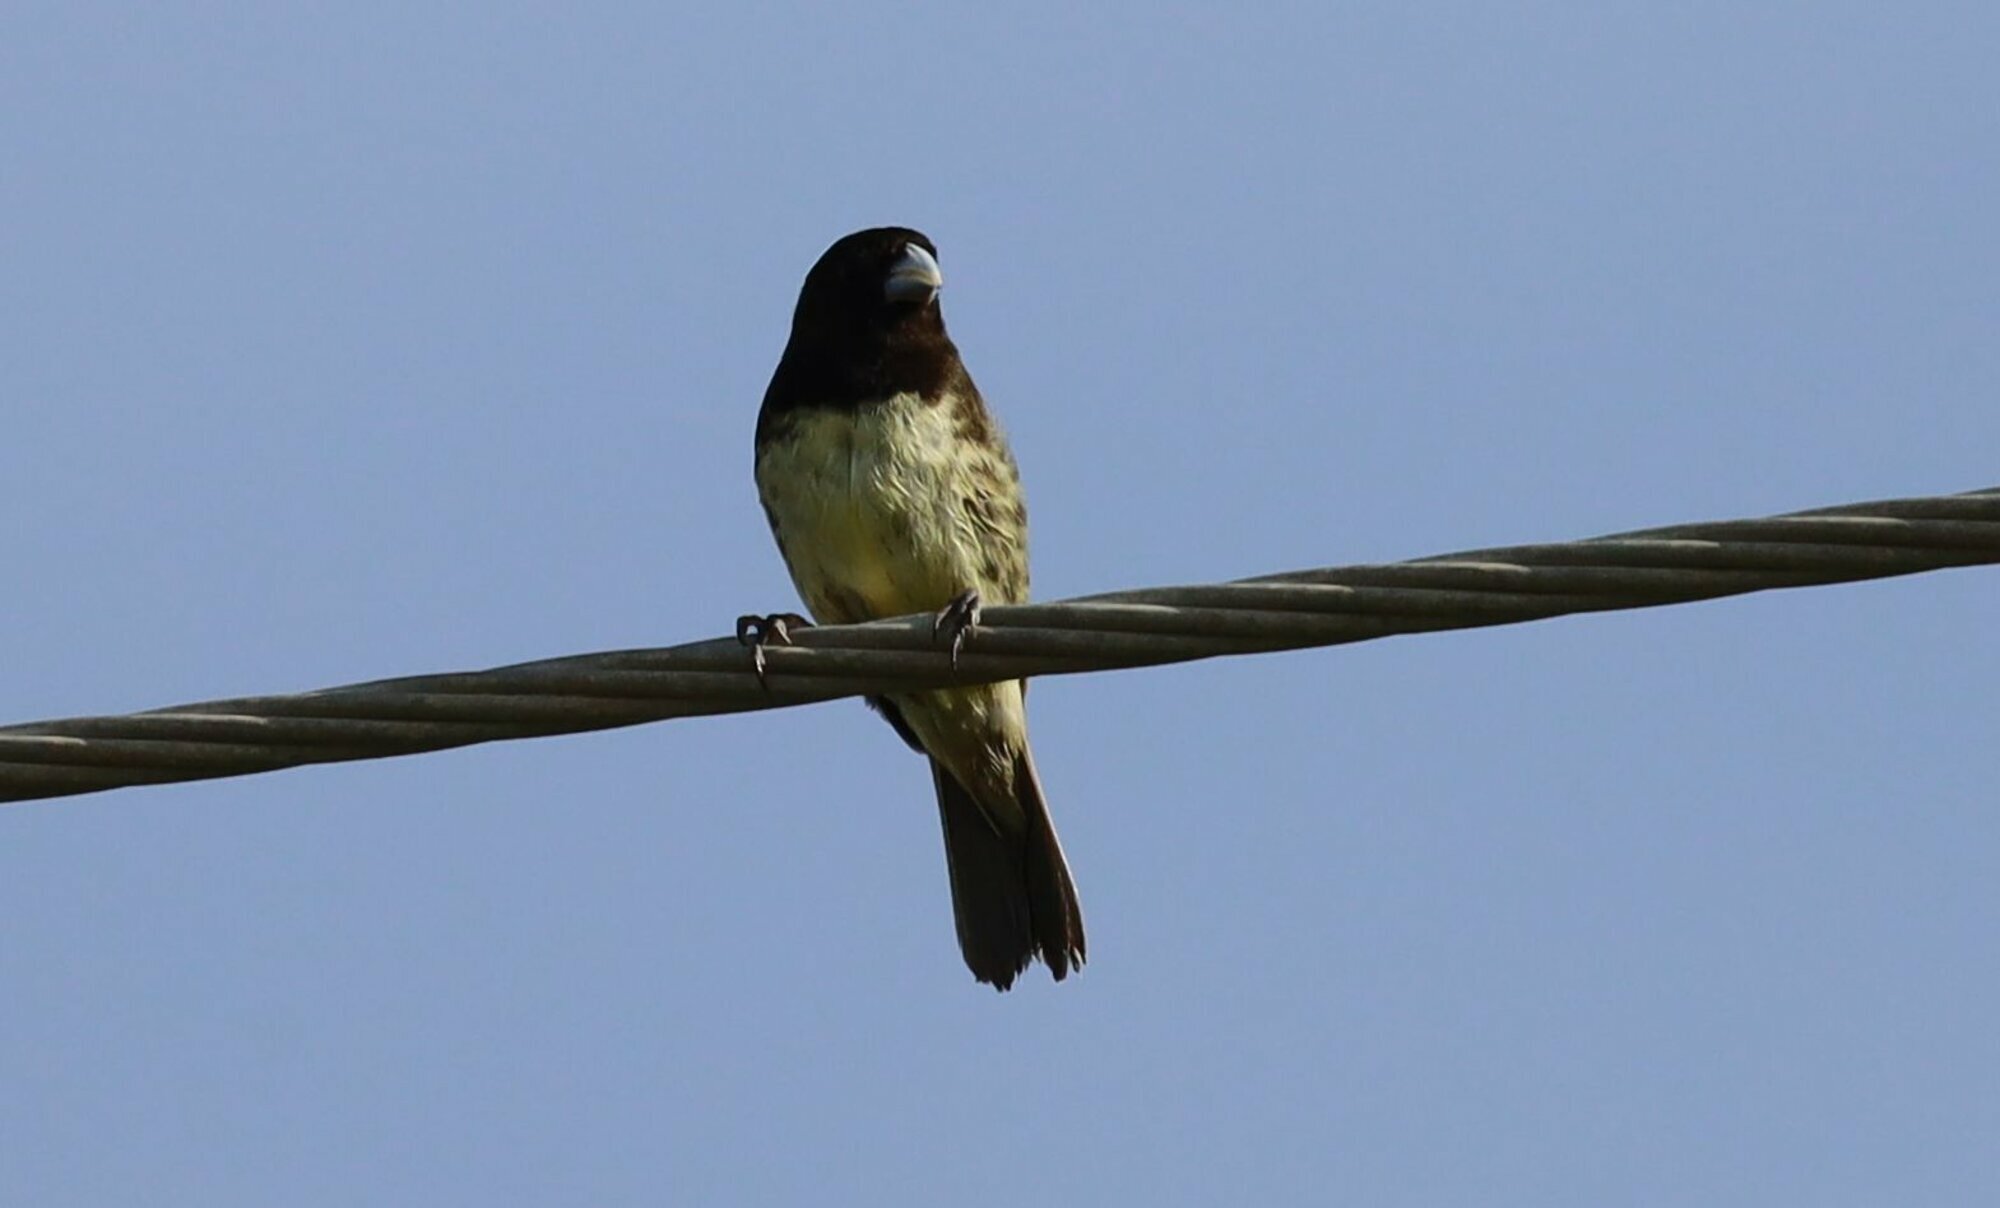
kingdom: Animalia
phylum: Chordata
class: Aves
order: Passeriformes
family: Thraupidae
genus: Sporophila
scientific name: Sporophila nigricollis
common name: Yellow-bellied seedeater
